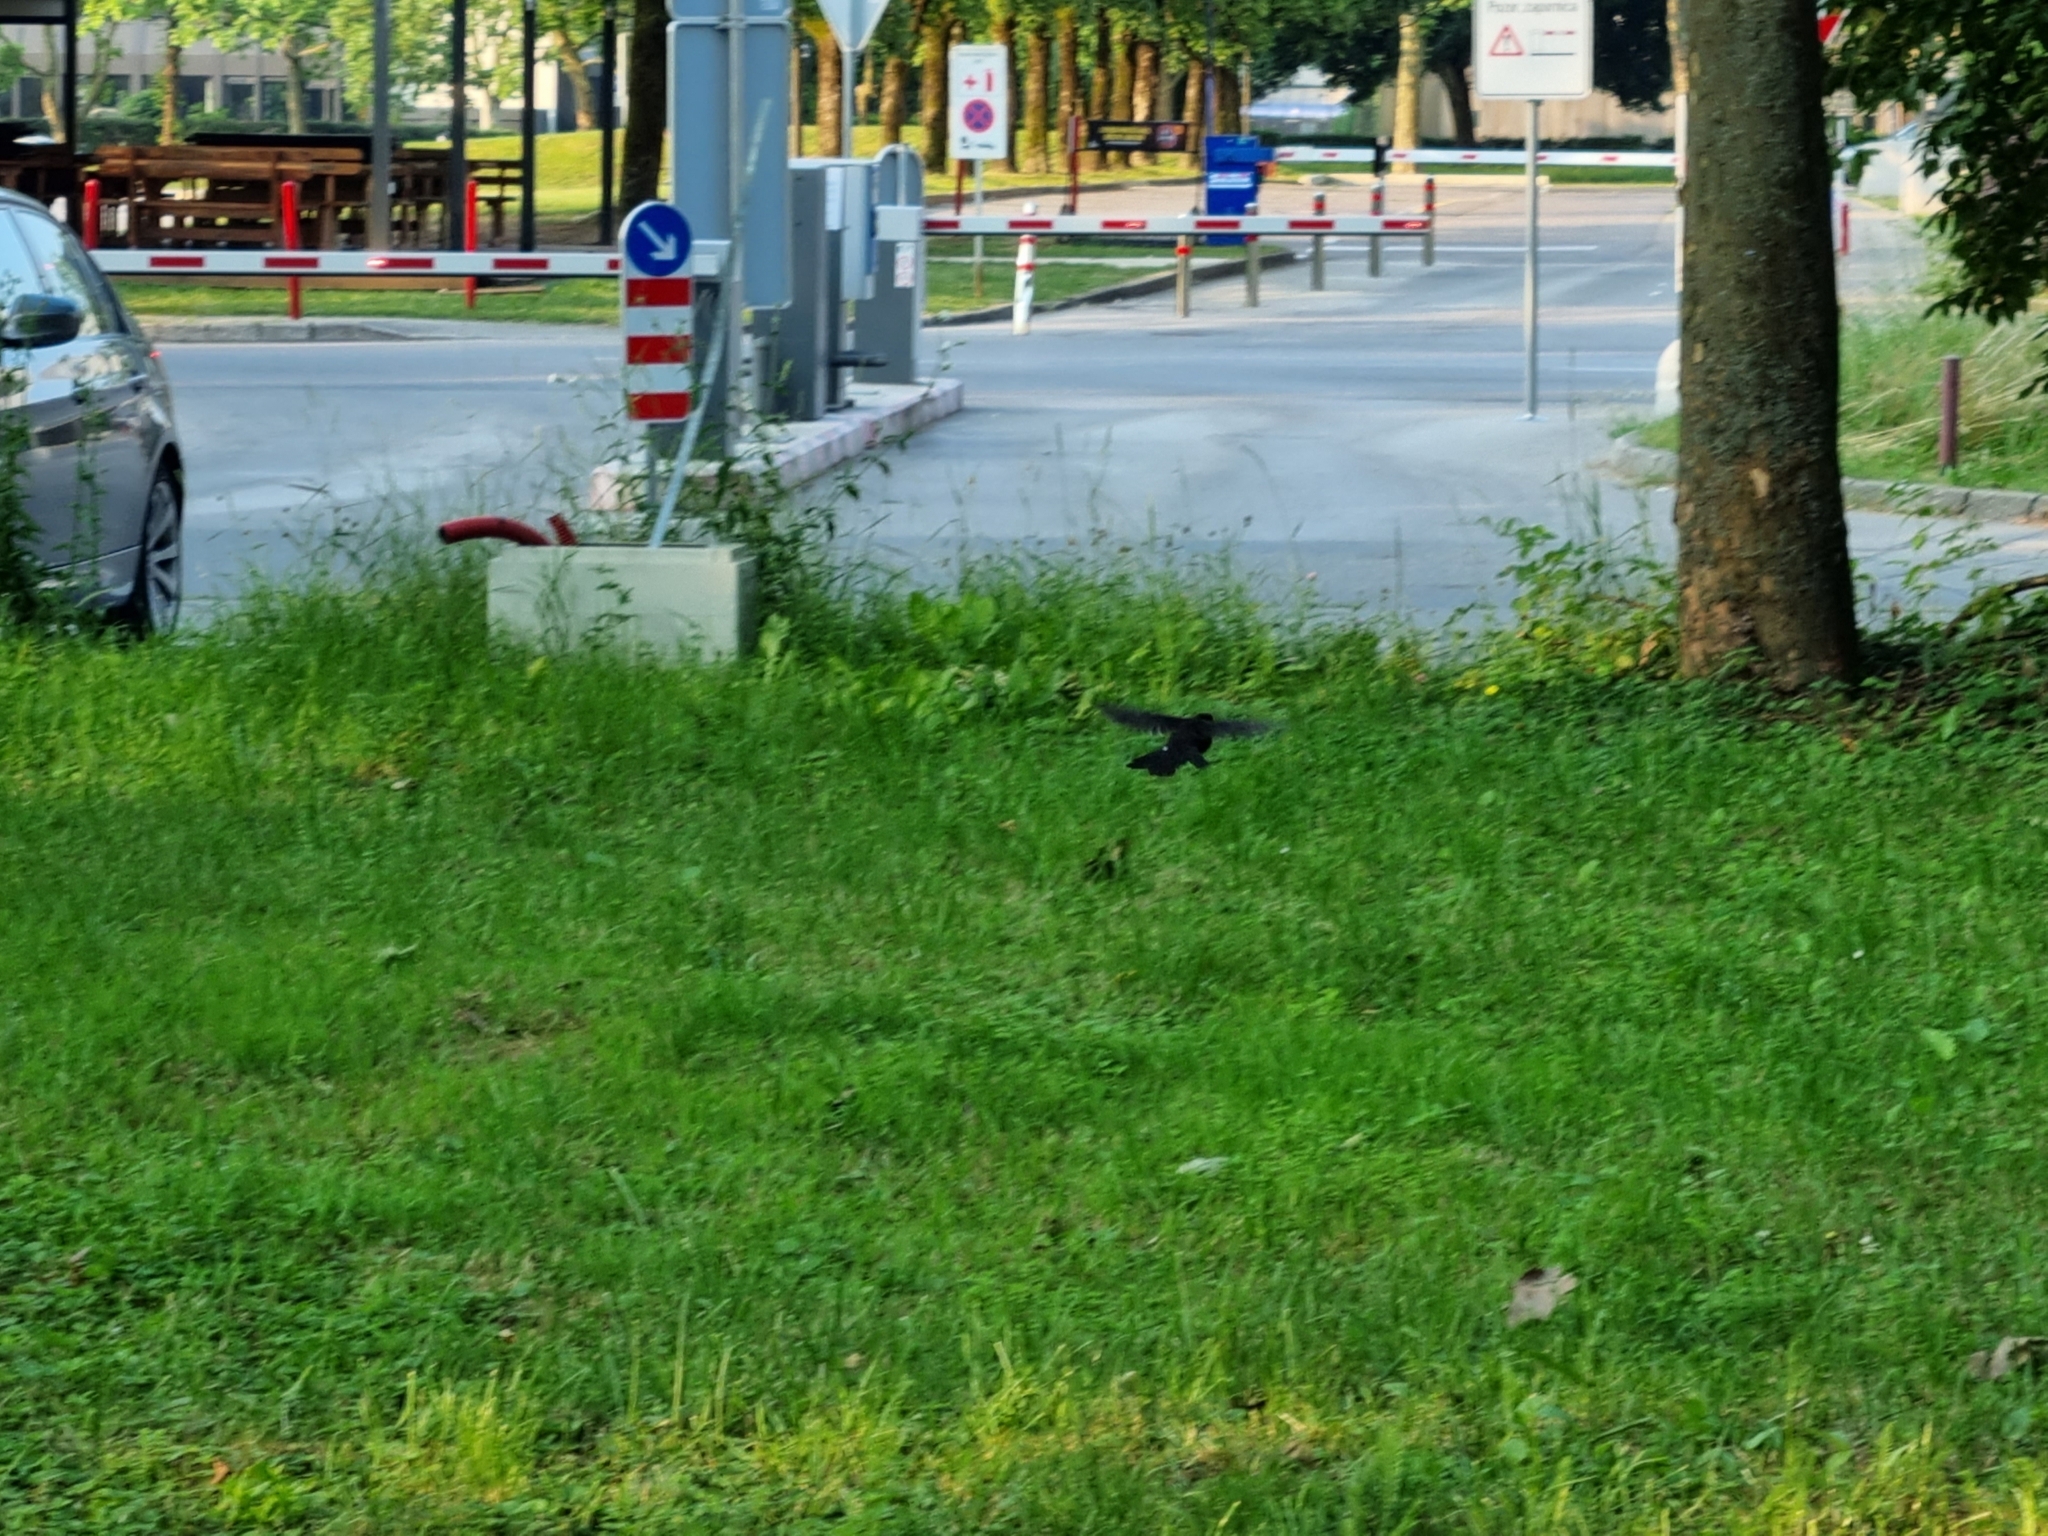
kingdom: Animalia
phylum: Chordata
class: Aves
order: Passeriformes
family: Turdidae
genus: Turdus
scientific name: Turdus merula
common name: Common blackbird
